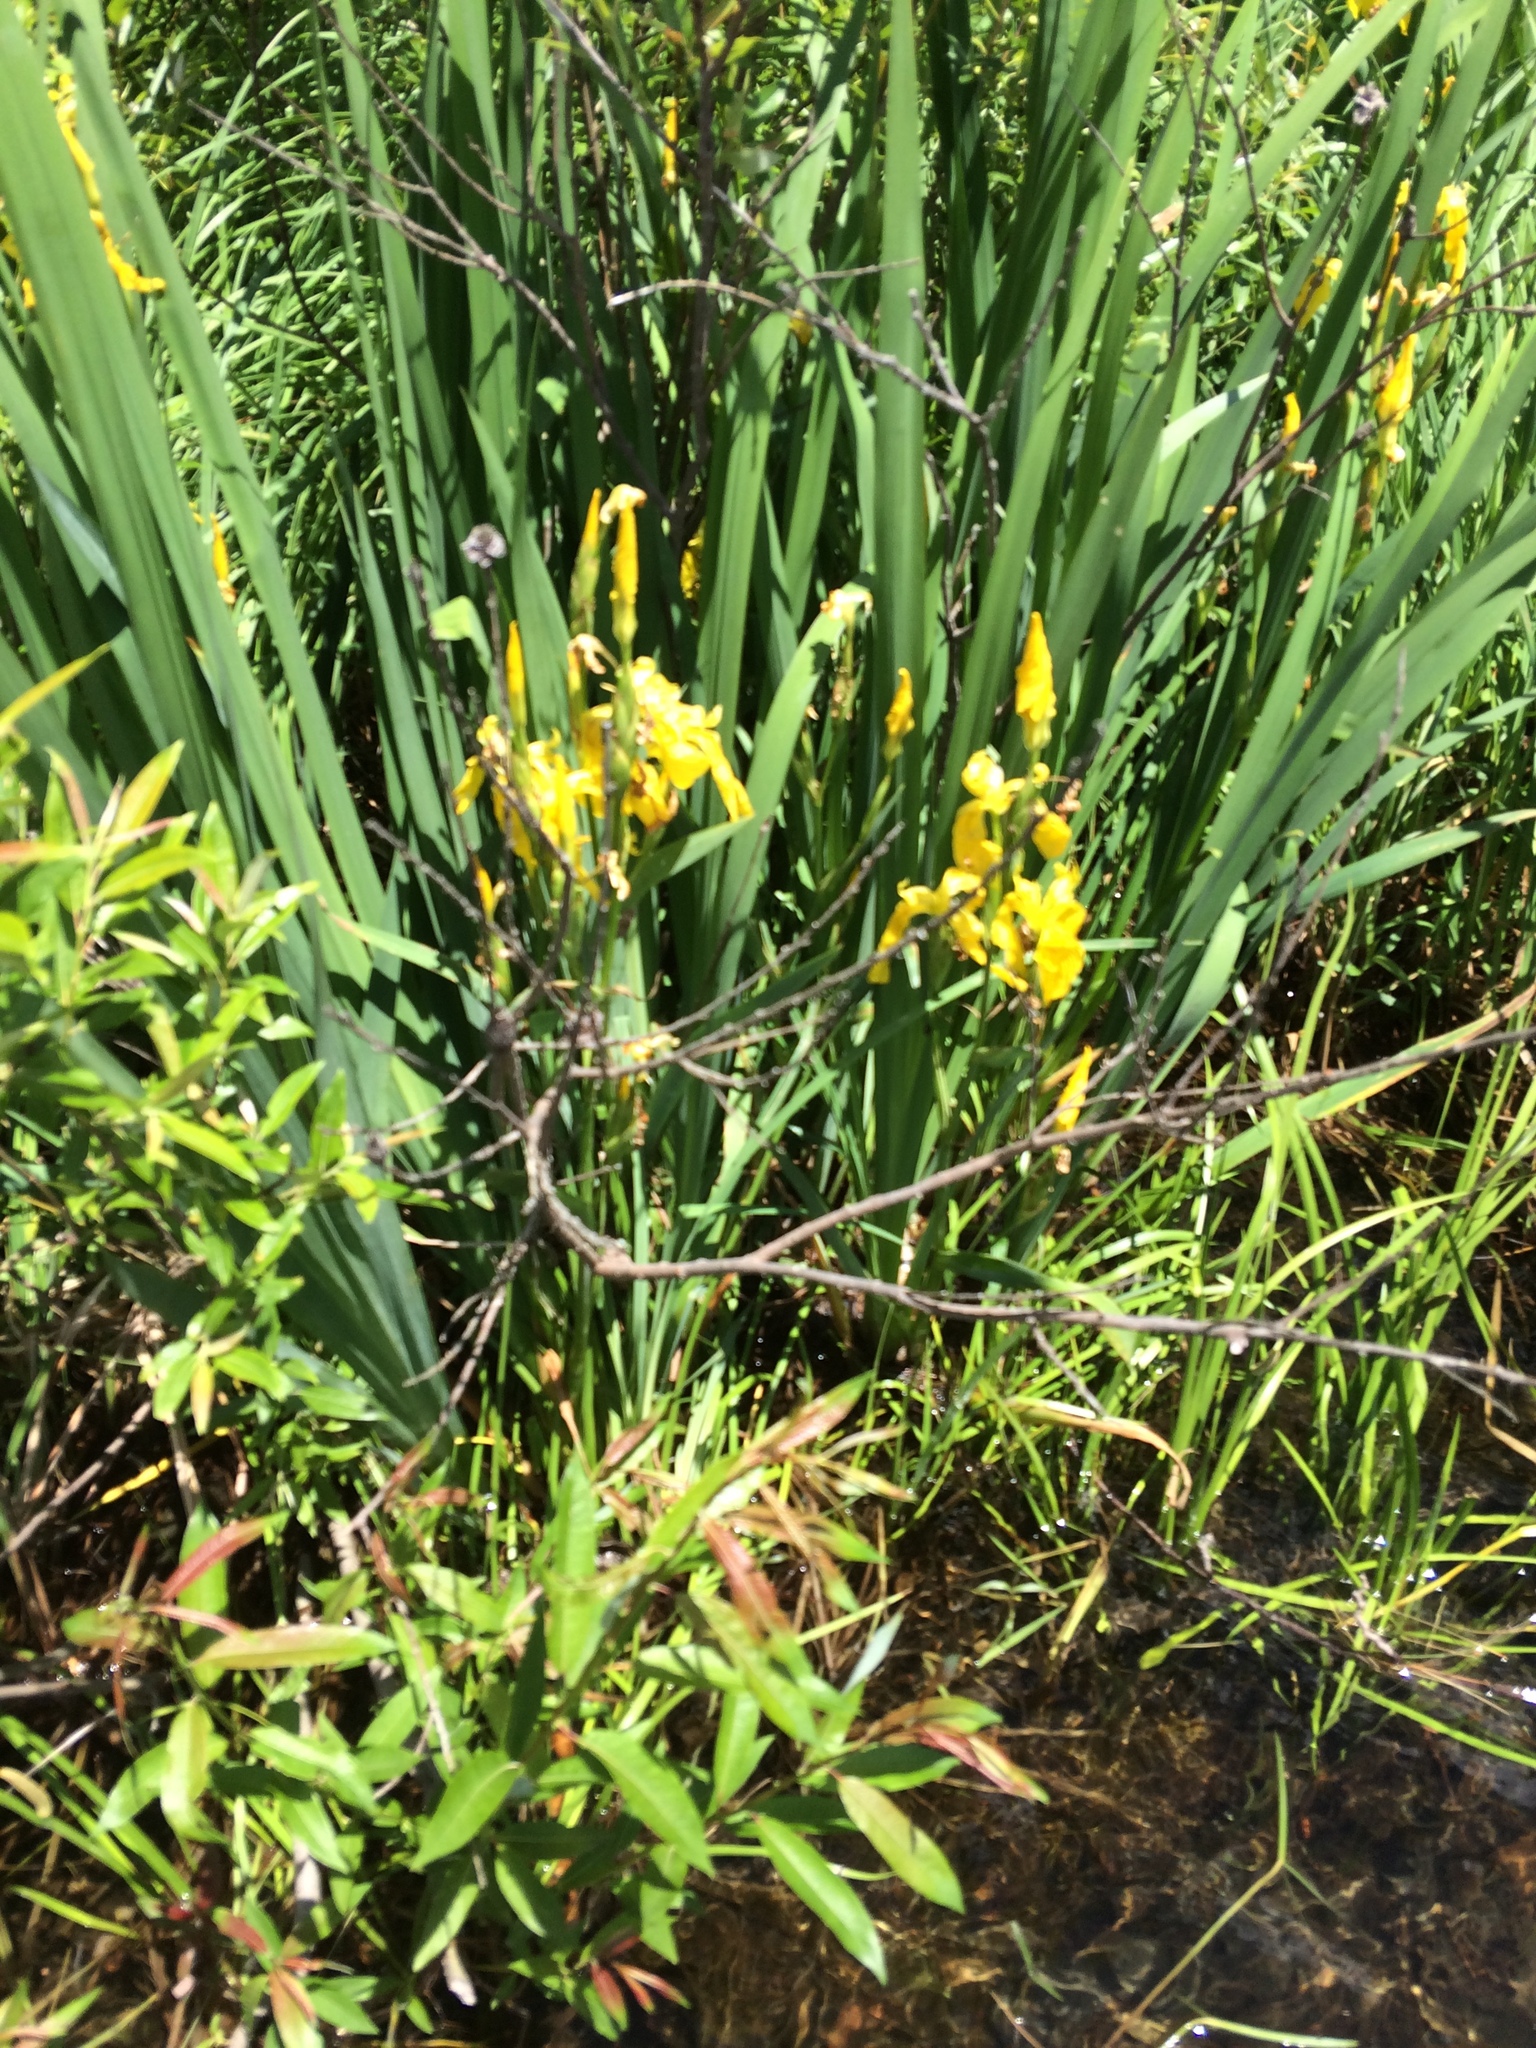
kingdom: Plantae
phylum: Tracheophyta
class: Liliopsida
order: Asparagales
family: Iridaceae
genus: Iris
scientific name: Iris pseudacorus
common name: Yellow flag
